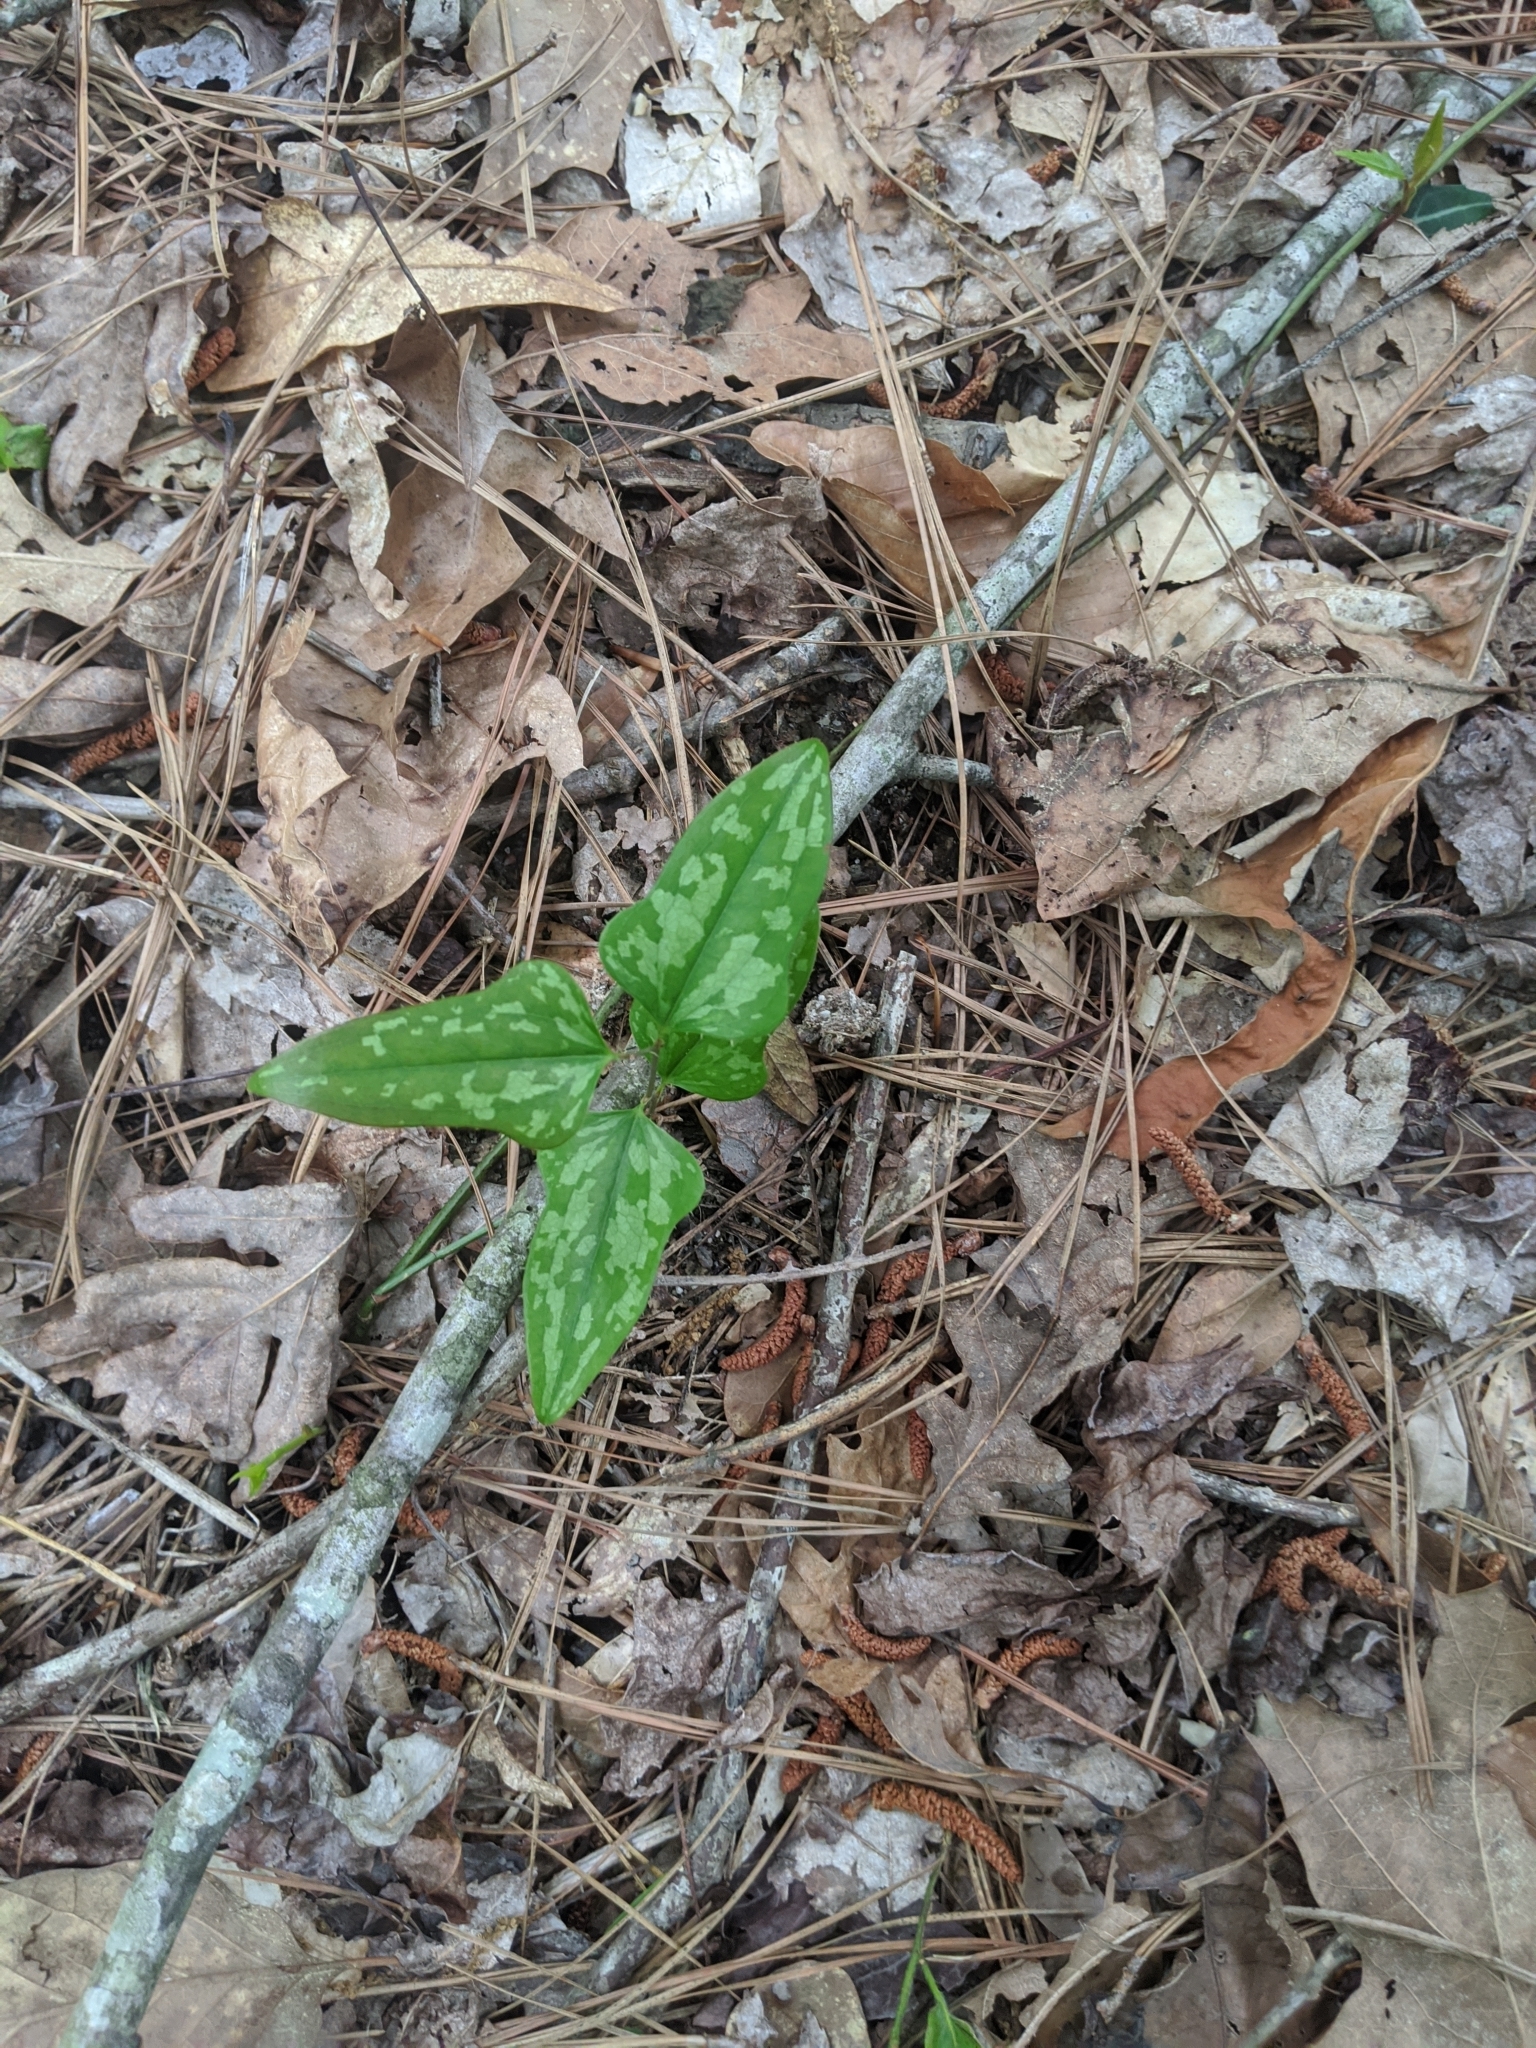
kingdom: Plantae
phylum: Tracheophyta
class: Liliopsida
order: Liliales
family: Smilacaceae
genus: Smilax
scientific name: Smilax bona-nox
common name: Catbrier
